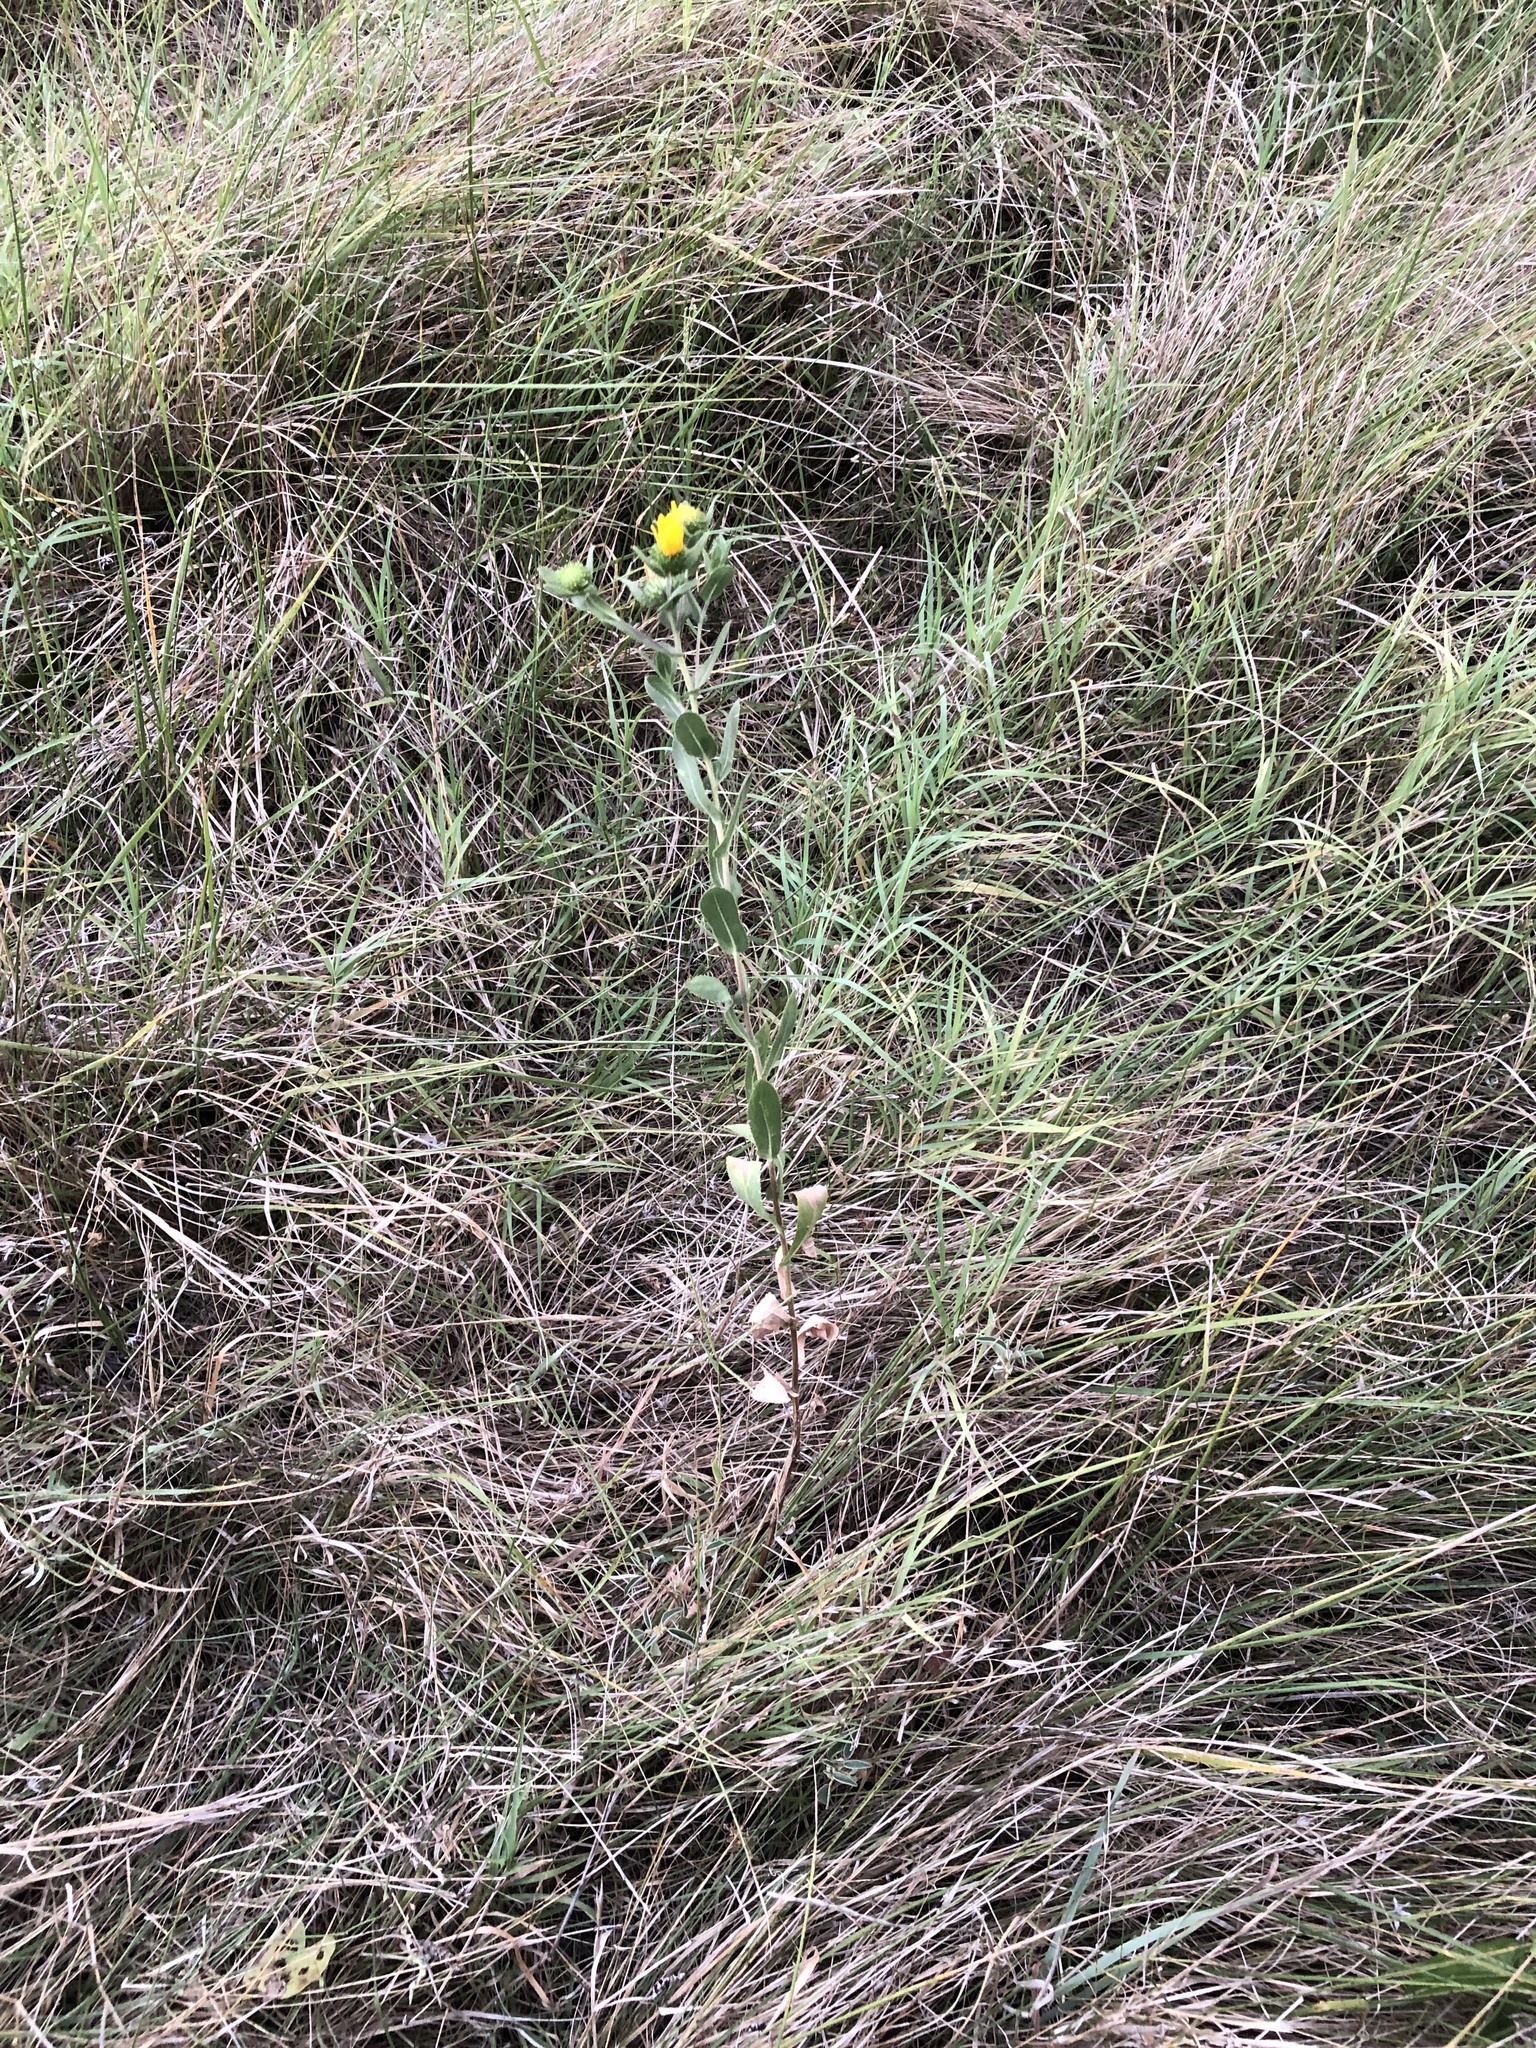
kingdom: Plantae
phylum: Tracheophyta
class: Magnoliopsida
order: Asterales
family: Asteraceae
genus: Grindelia
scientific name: Grindelia adenodonta
